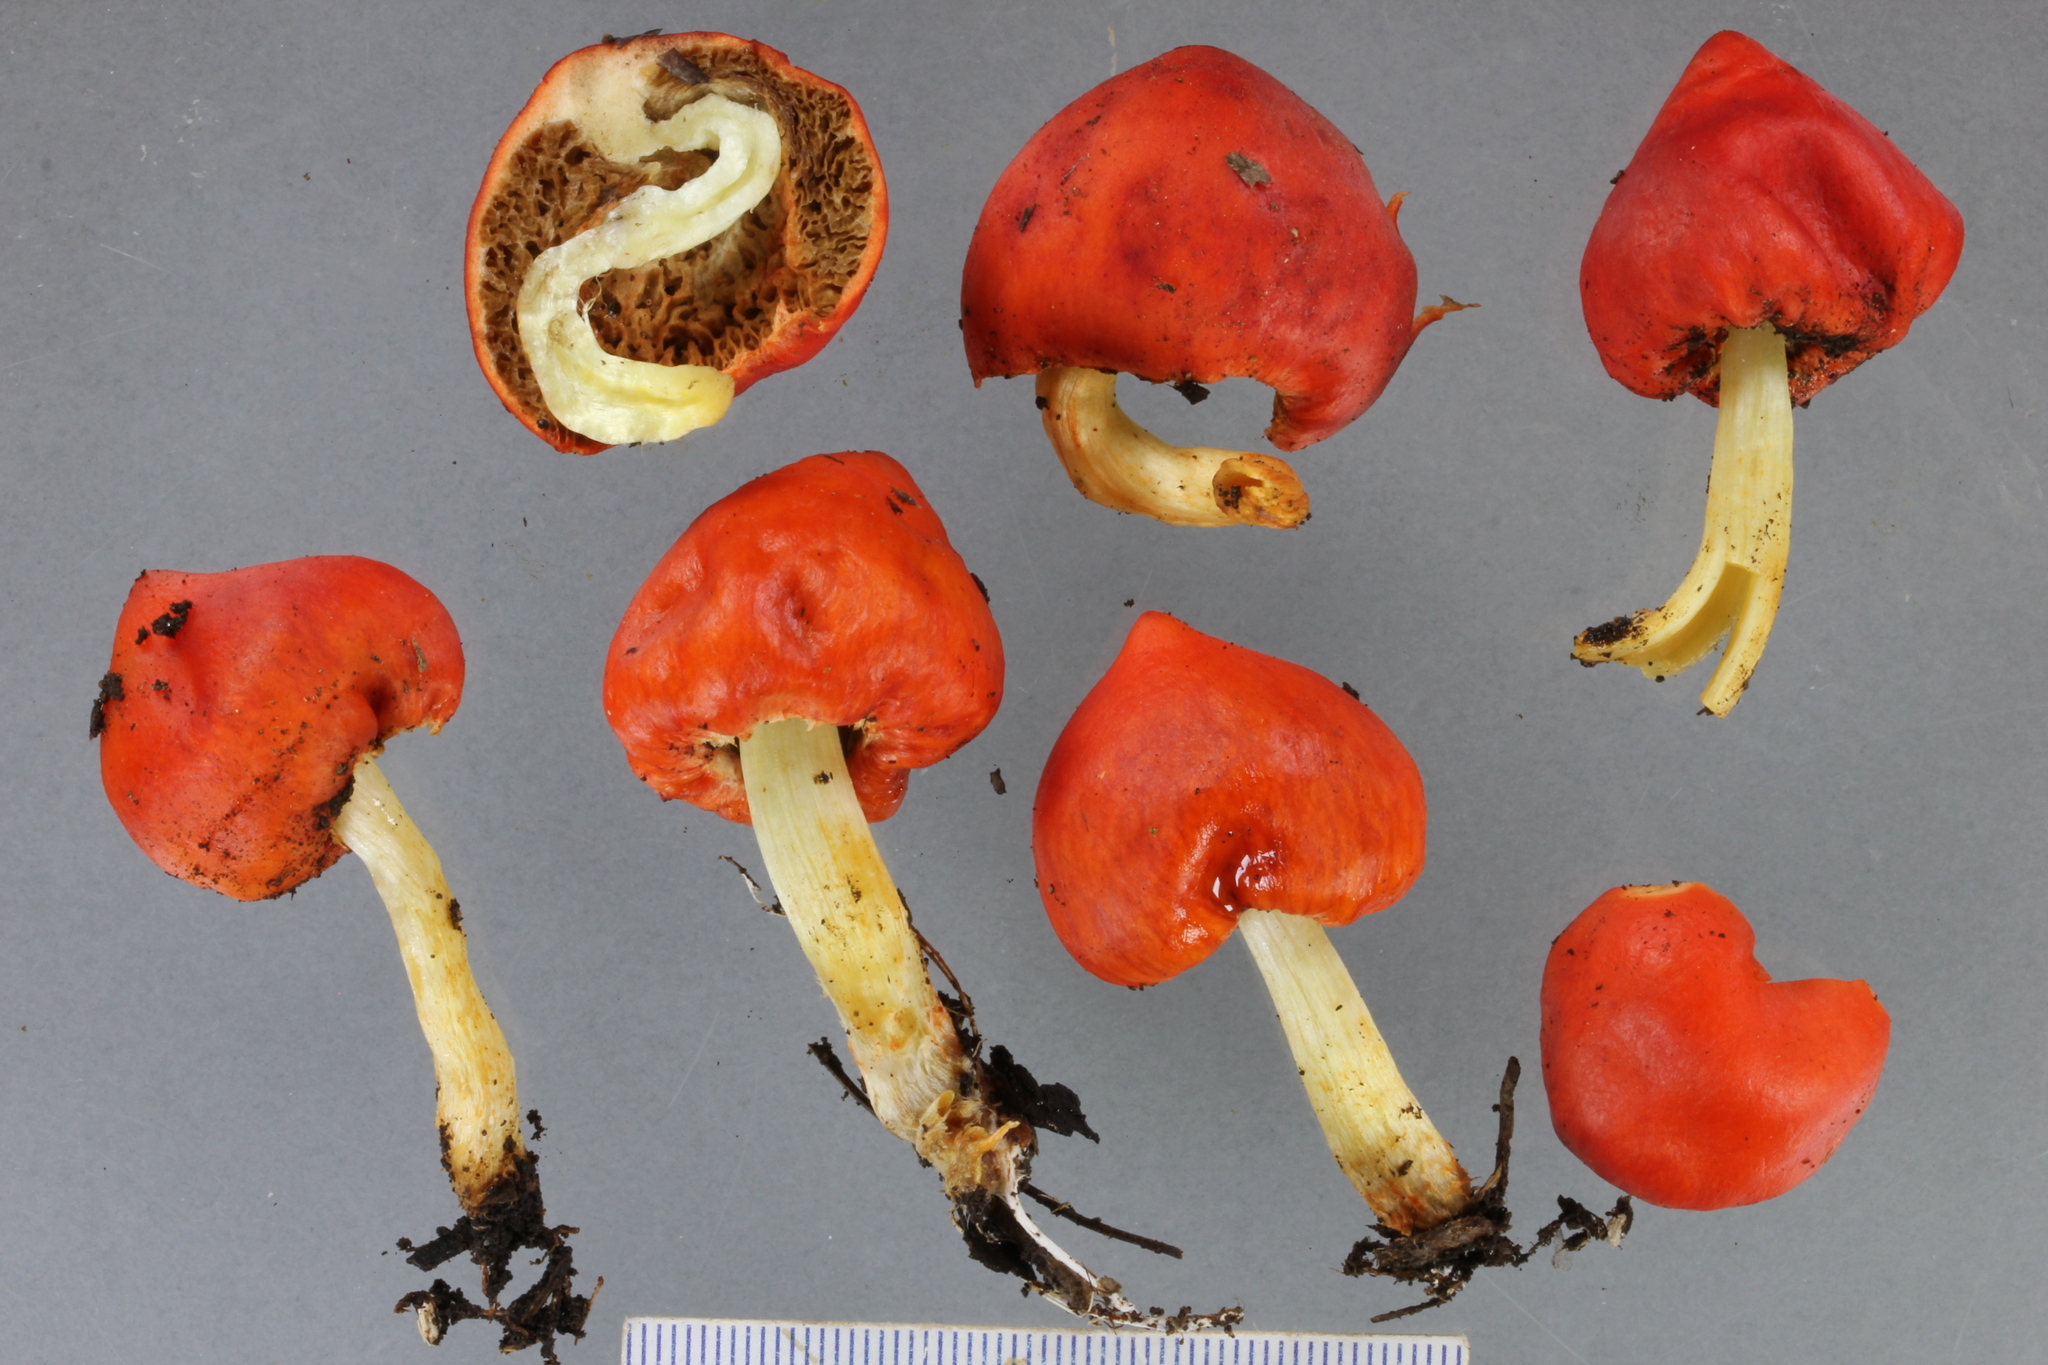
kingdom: Fungi
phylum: Basidiomycota
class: Agaricomycetes
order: Agaricales
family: Strophariaceae
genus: Leratiomyces
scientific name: Leratiomyces erythrocephalus
